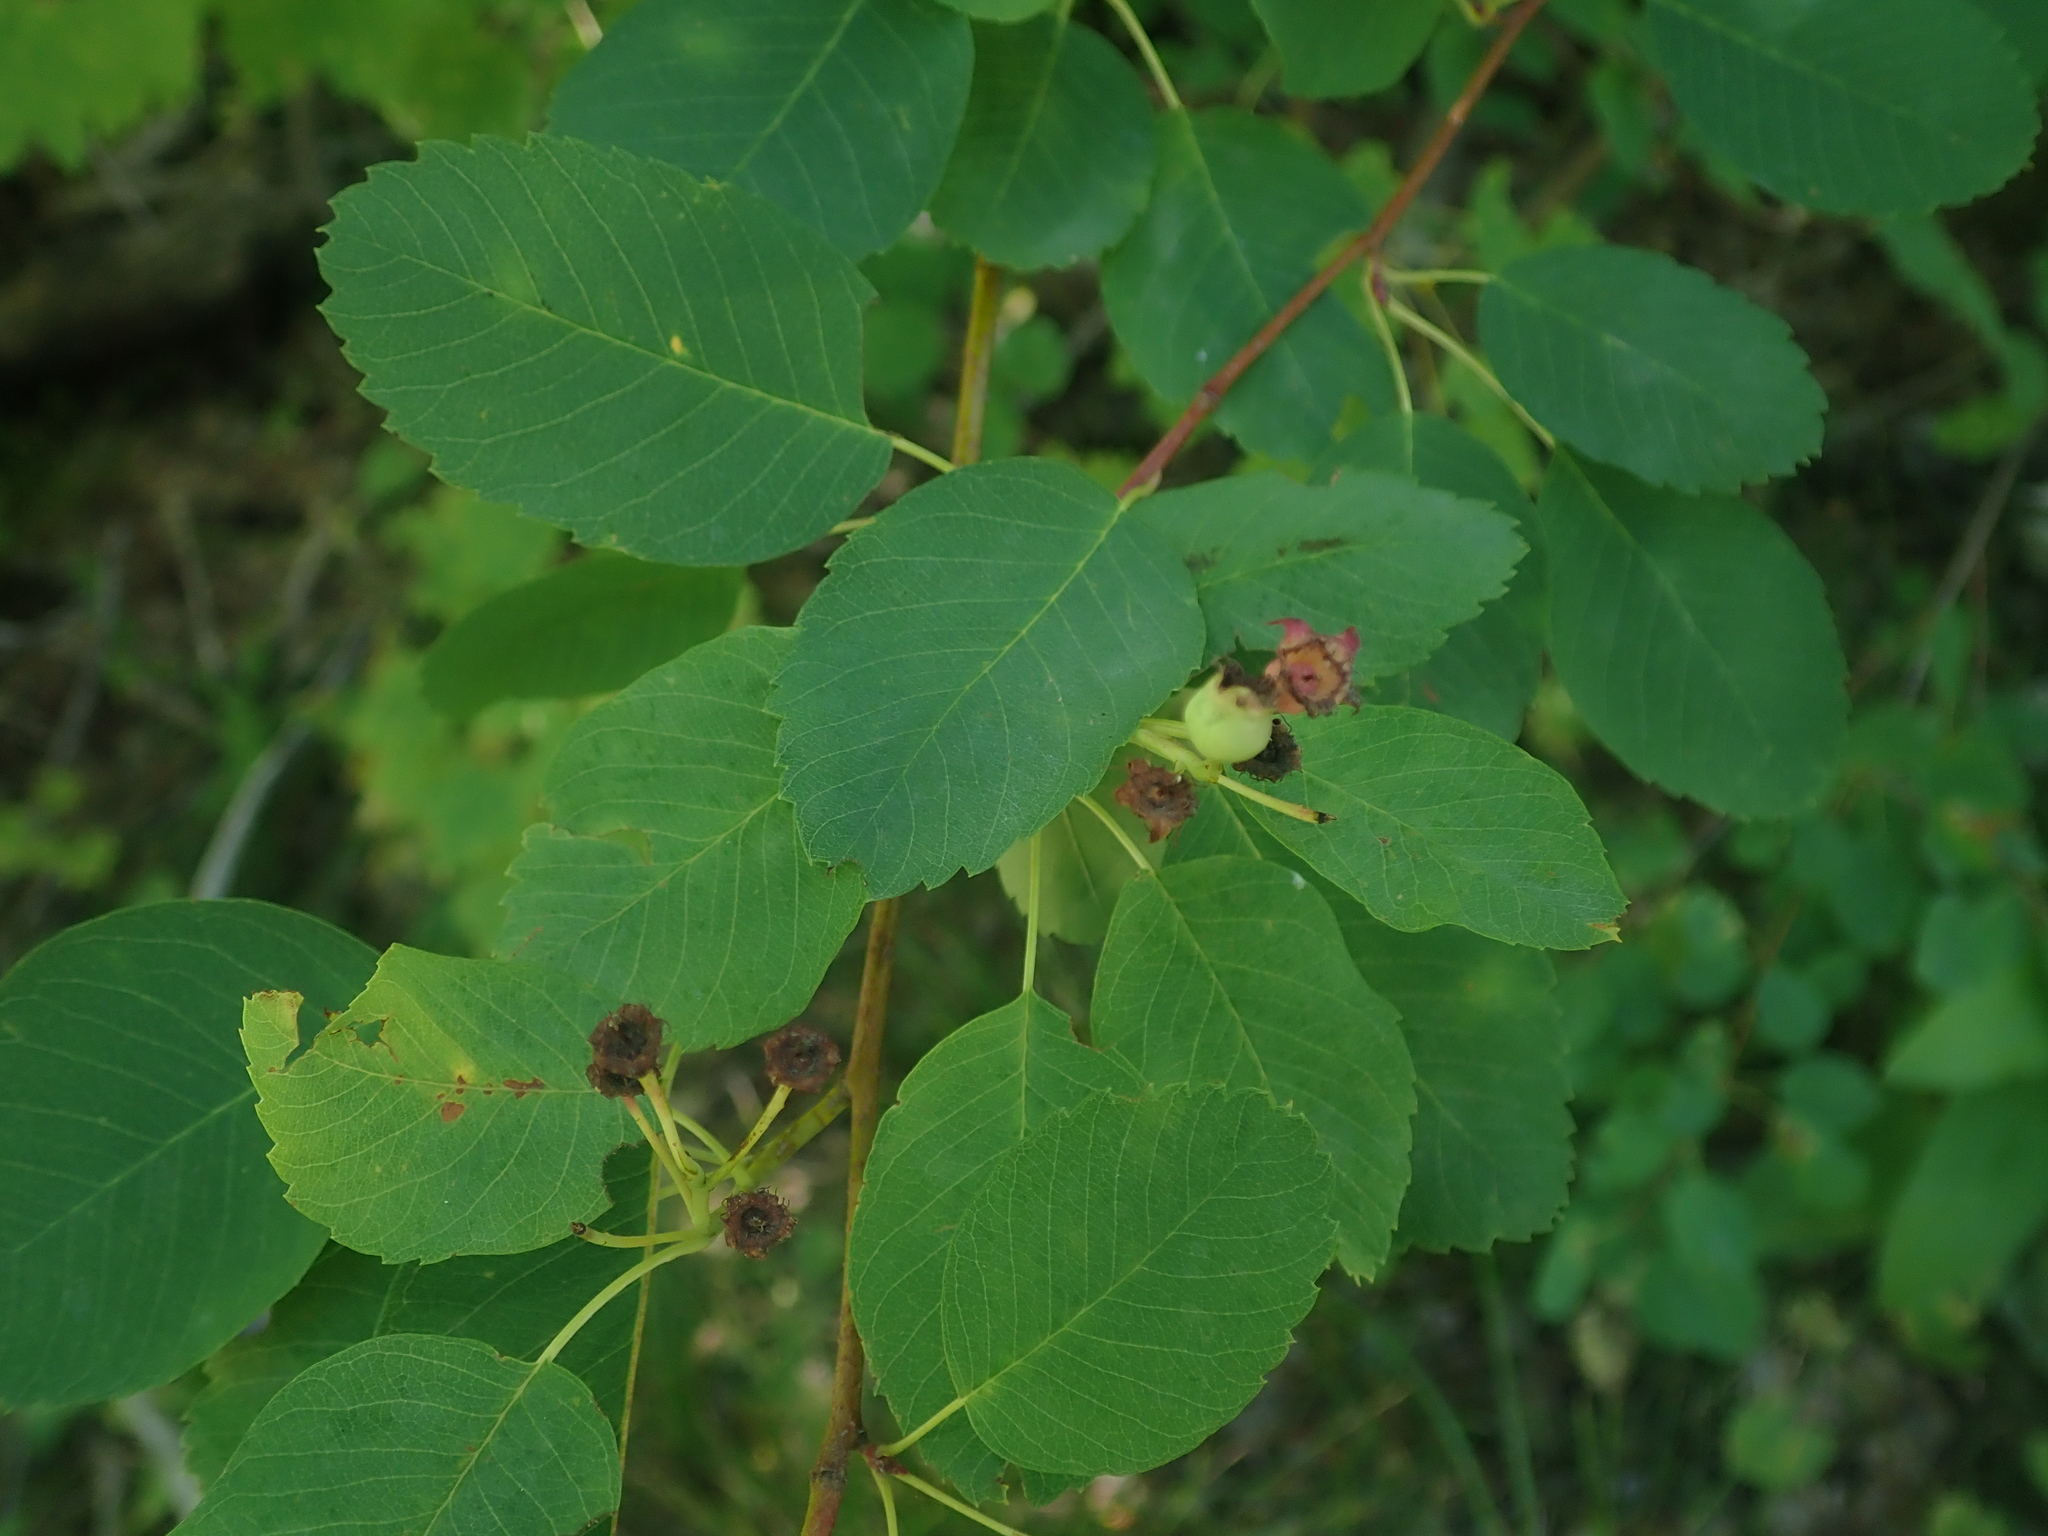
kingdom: Plantae
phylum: Tracheophyta
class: Magnoliopsida
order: Rosales
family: Rosaceae
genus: Amelanchier
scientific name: Amelanchier alnifolia
